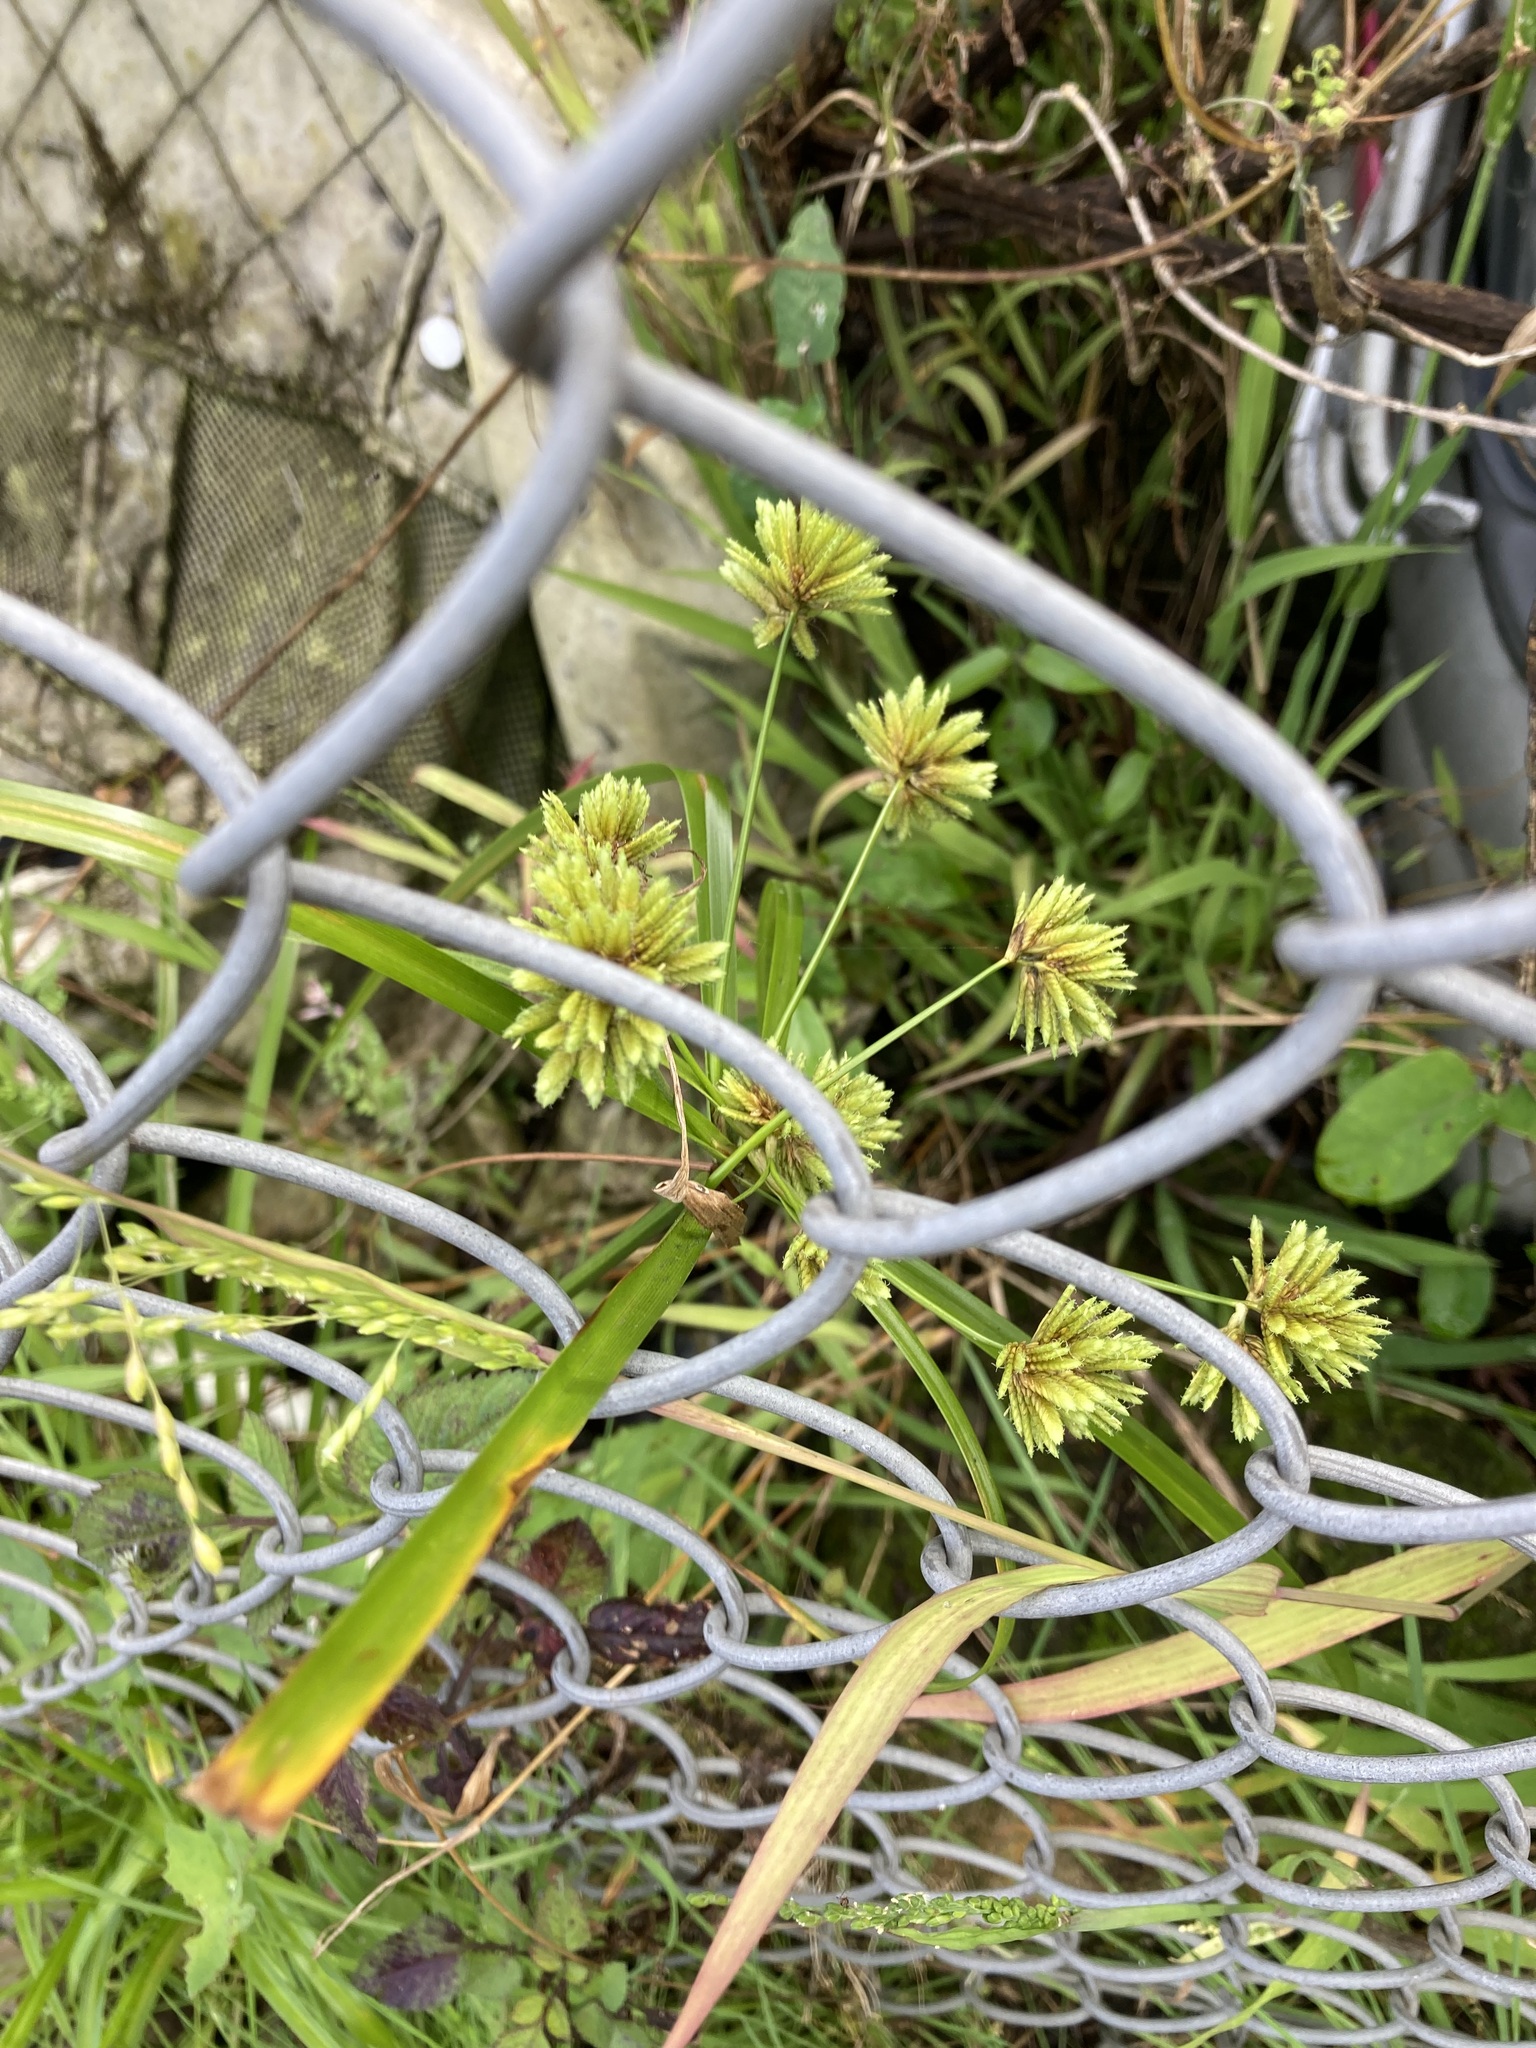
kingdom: Plantae
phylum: Tracheophyta
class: Liliopsida
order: Poales
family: Cyperaceae
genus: Cyperus
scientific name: Cyperus eragrostis
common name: Tall flatsedge
